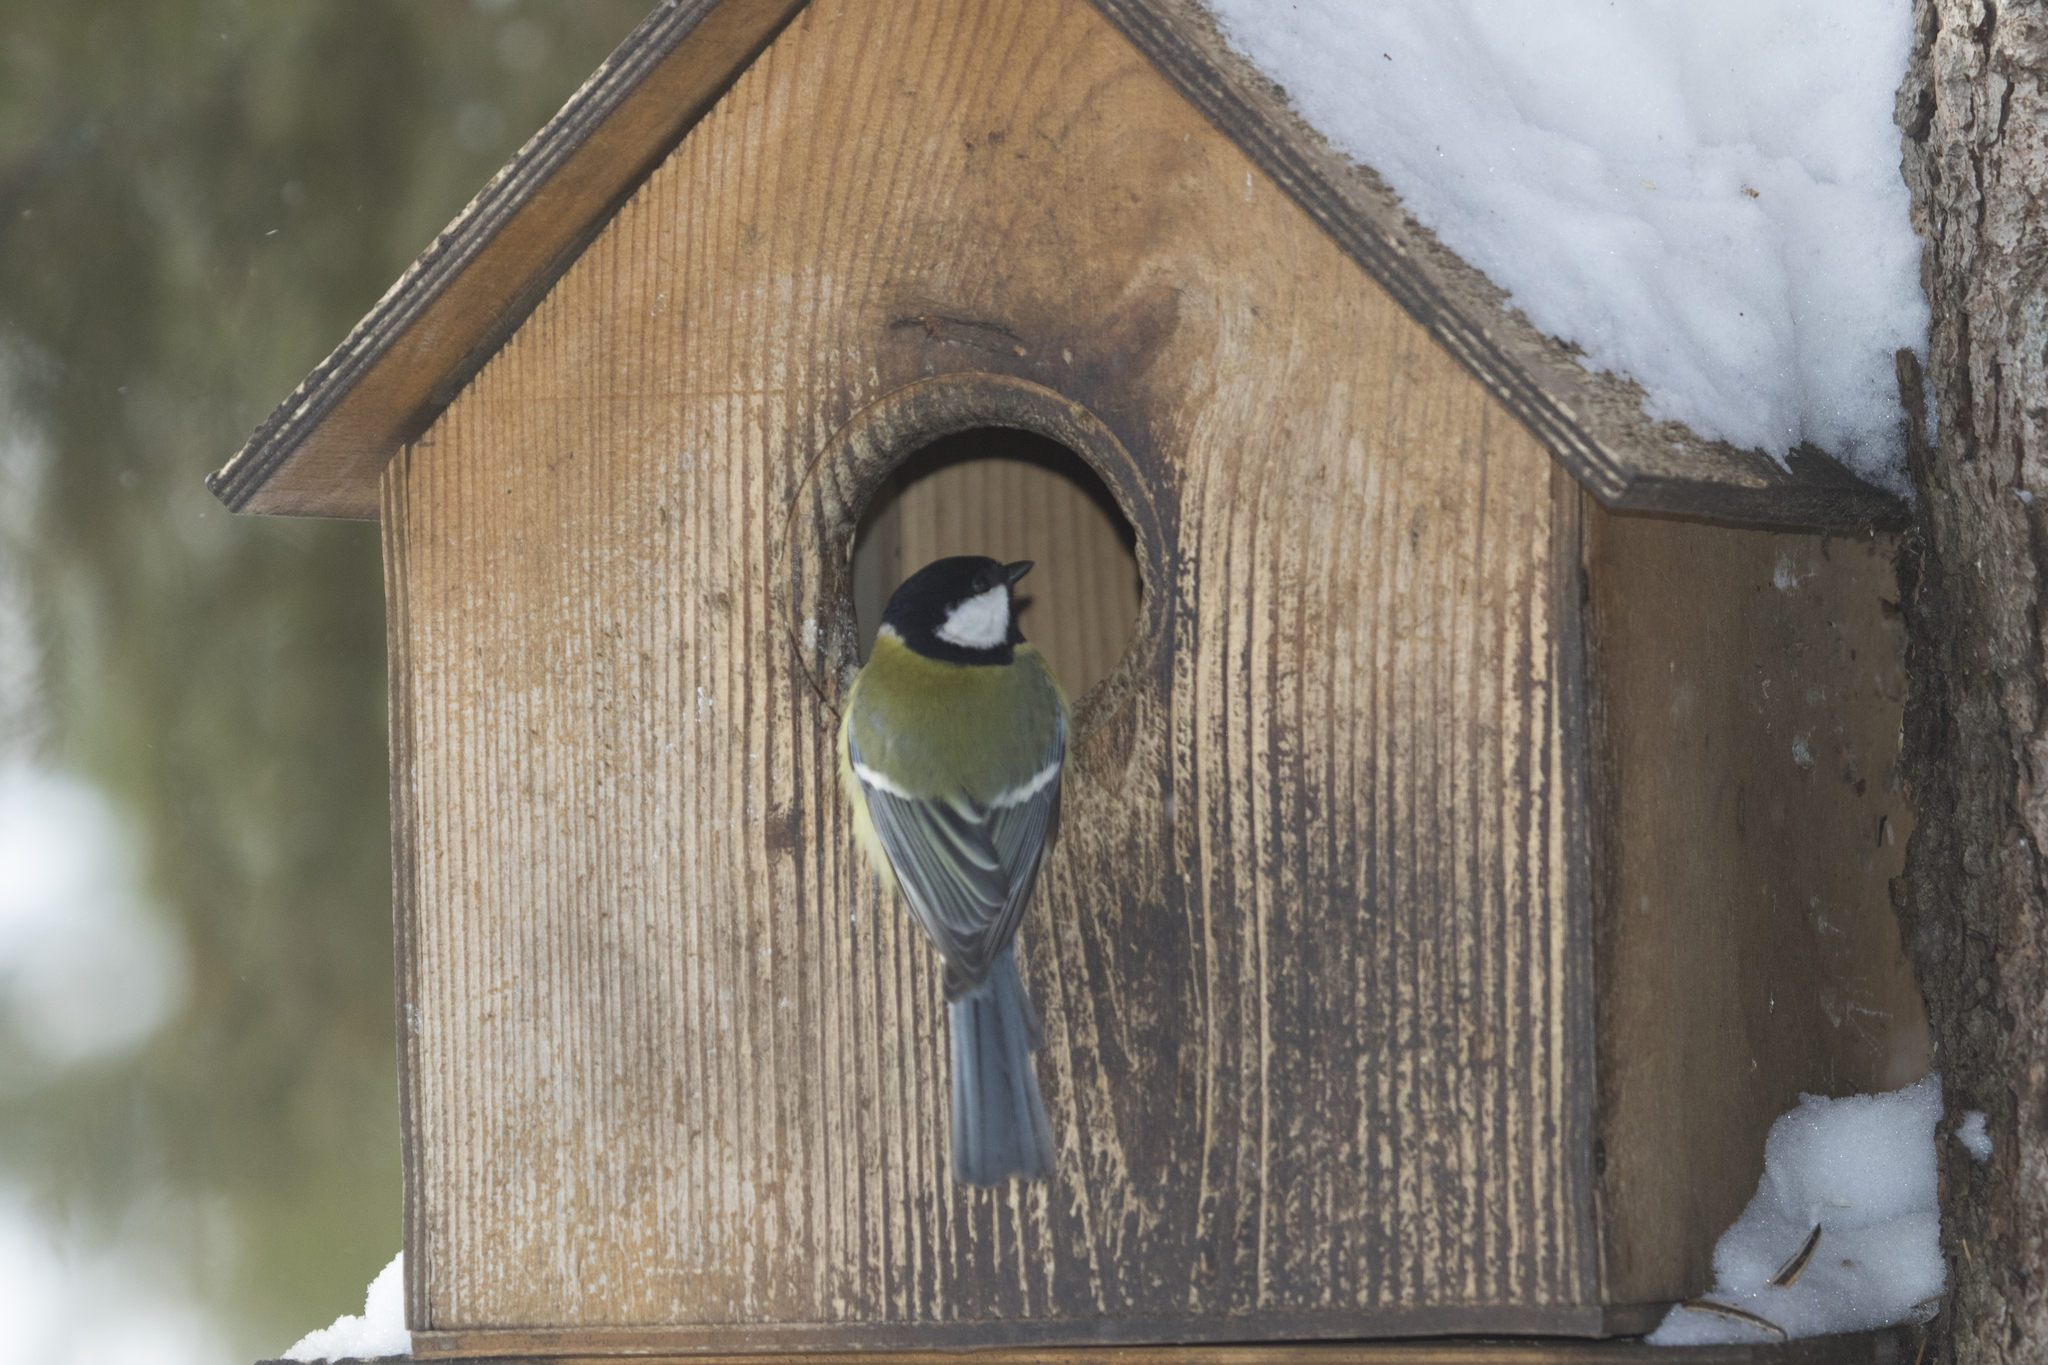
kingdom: Animalia
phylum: Chordata
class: Aves
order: Passeriformes
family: Paridae
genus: Parus
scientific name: Parus major
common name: Great tit
